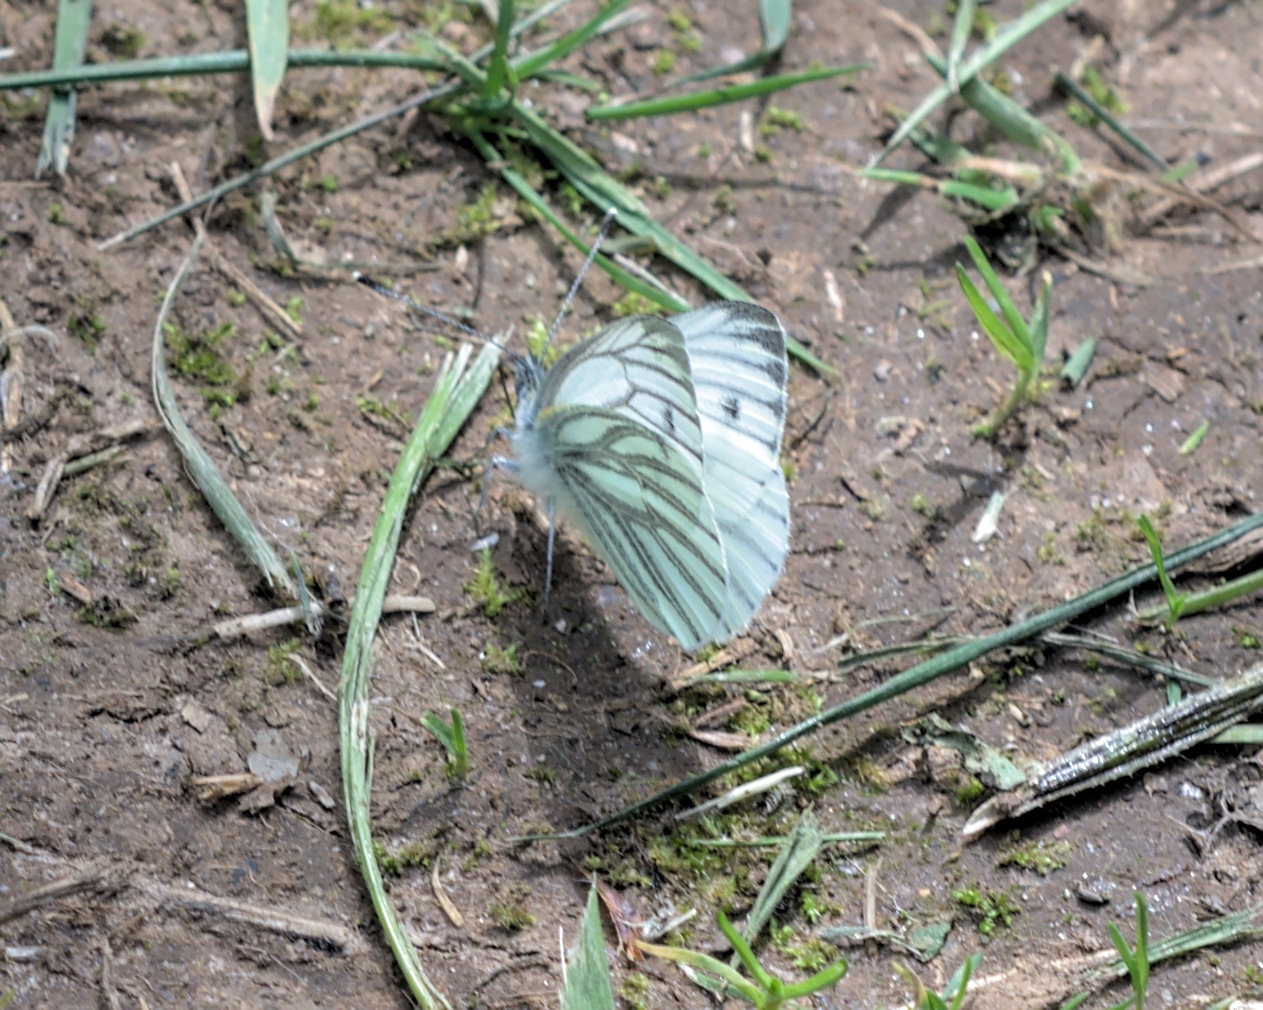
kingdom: Animalia
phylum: Arthropoda
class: Insecta
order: Lepidoptera
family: Pieridae
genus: Pieris
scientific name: Pieris napi
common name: Green-veined white
